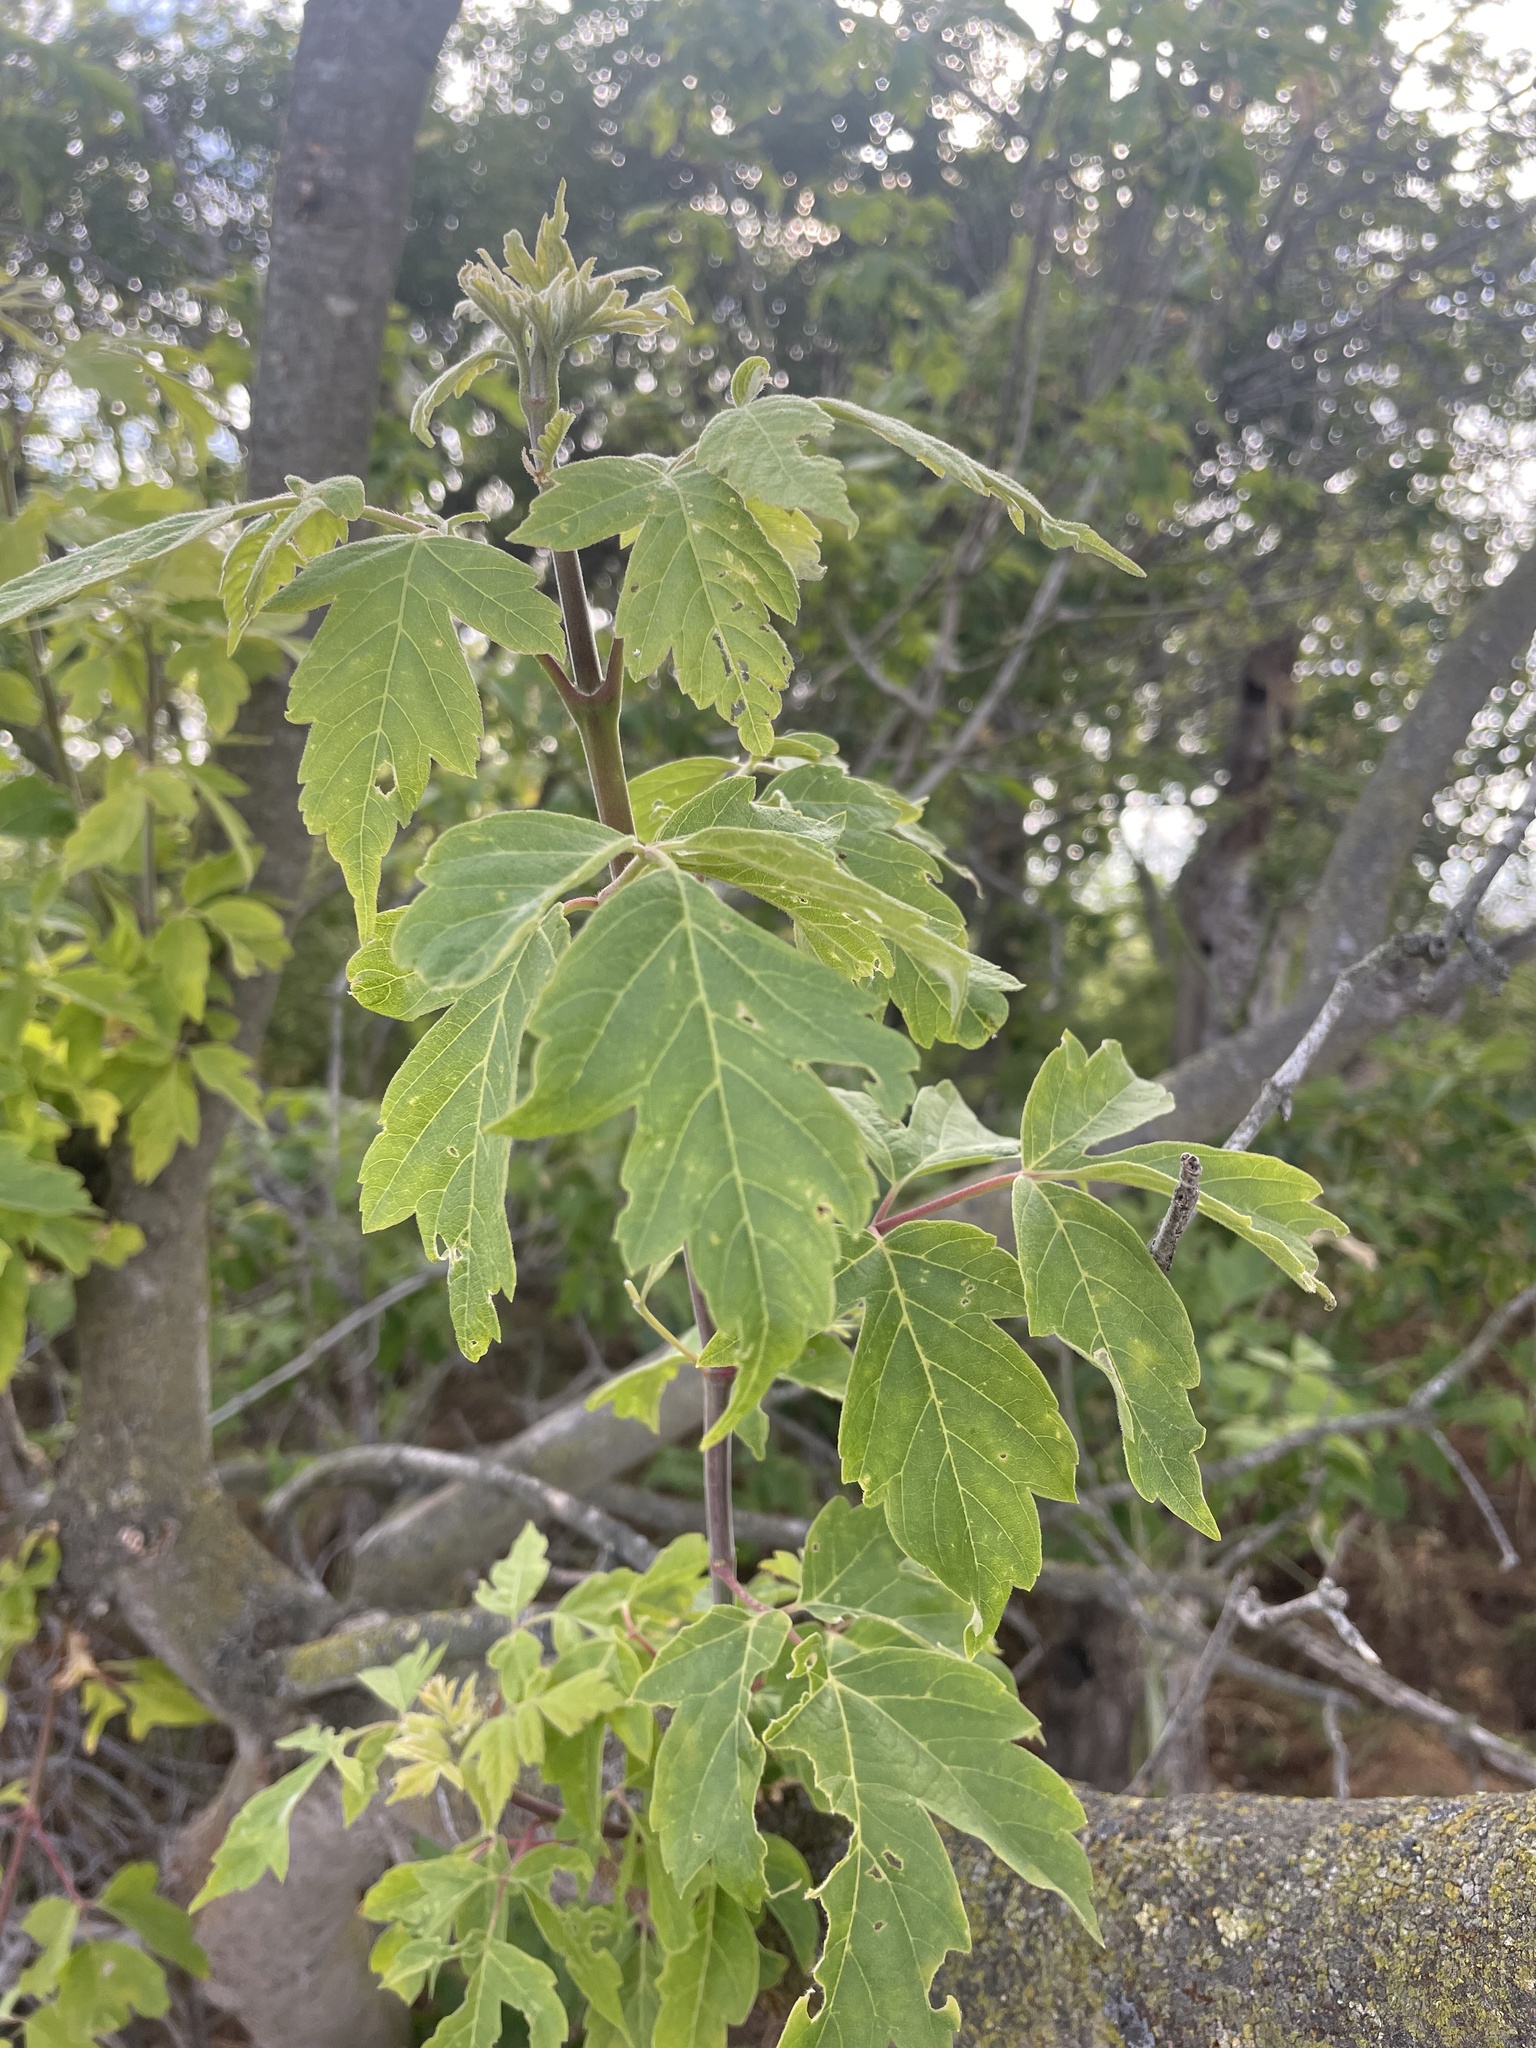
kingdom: Plantae
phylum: Tracheophyta
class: Magnoliopsida
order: Sapindales
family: Sapindaceae
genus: Acer
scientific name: Acer negundo
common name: Ashleaf maple
